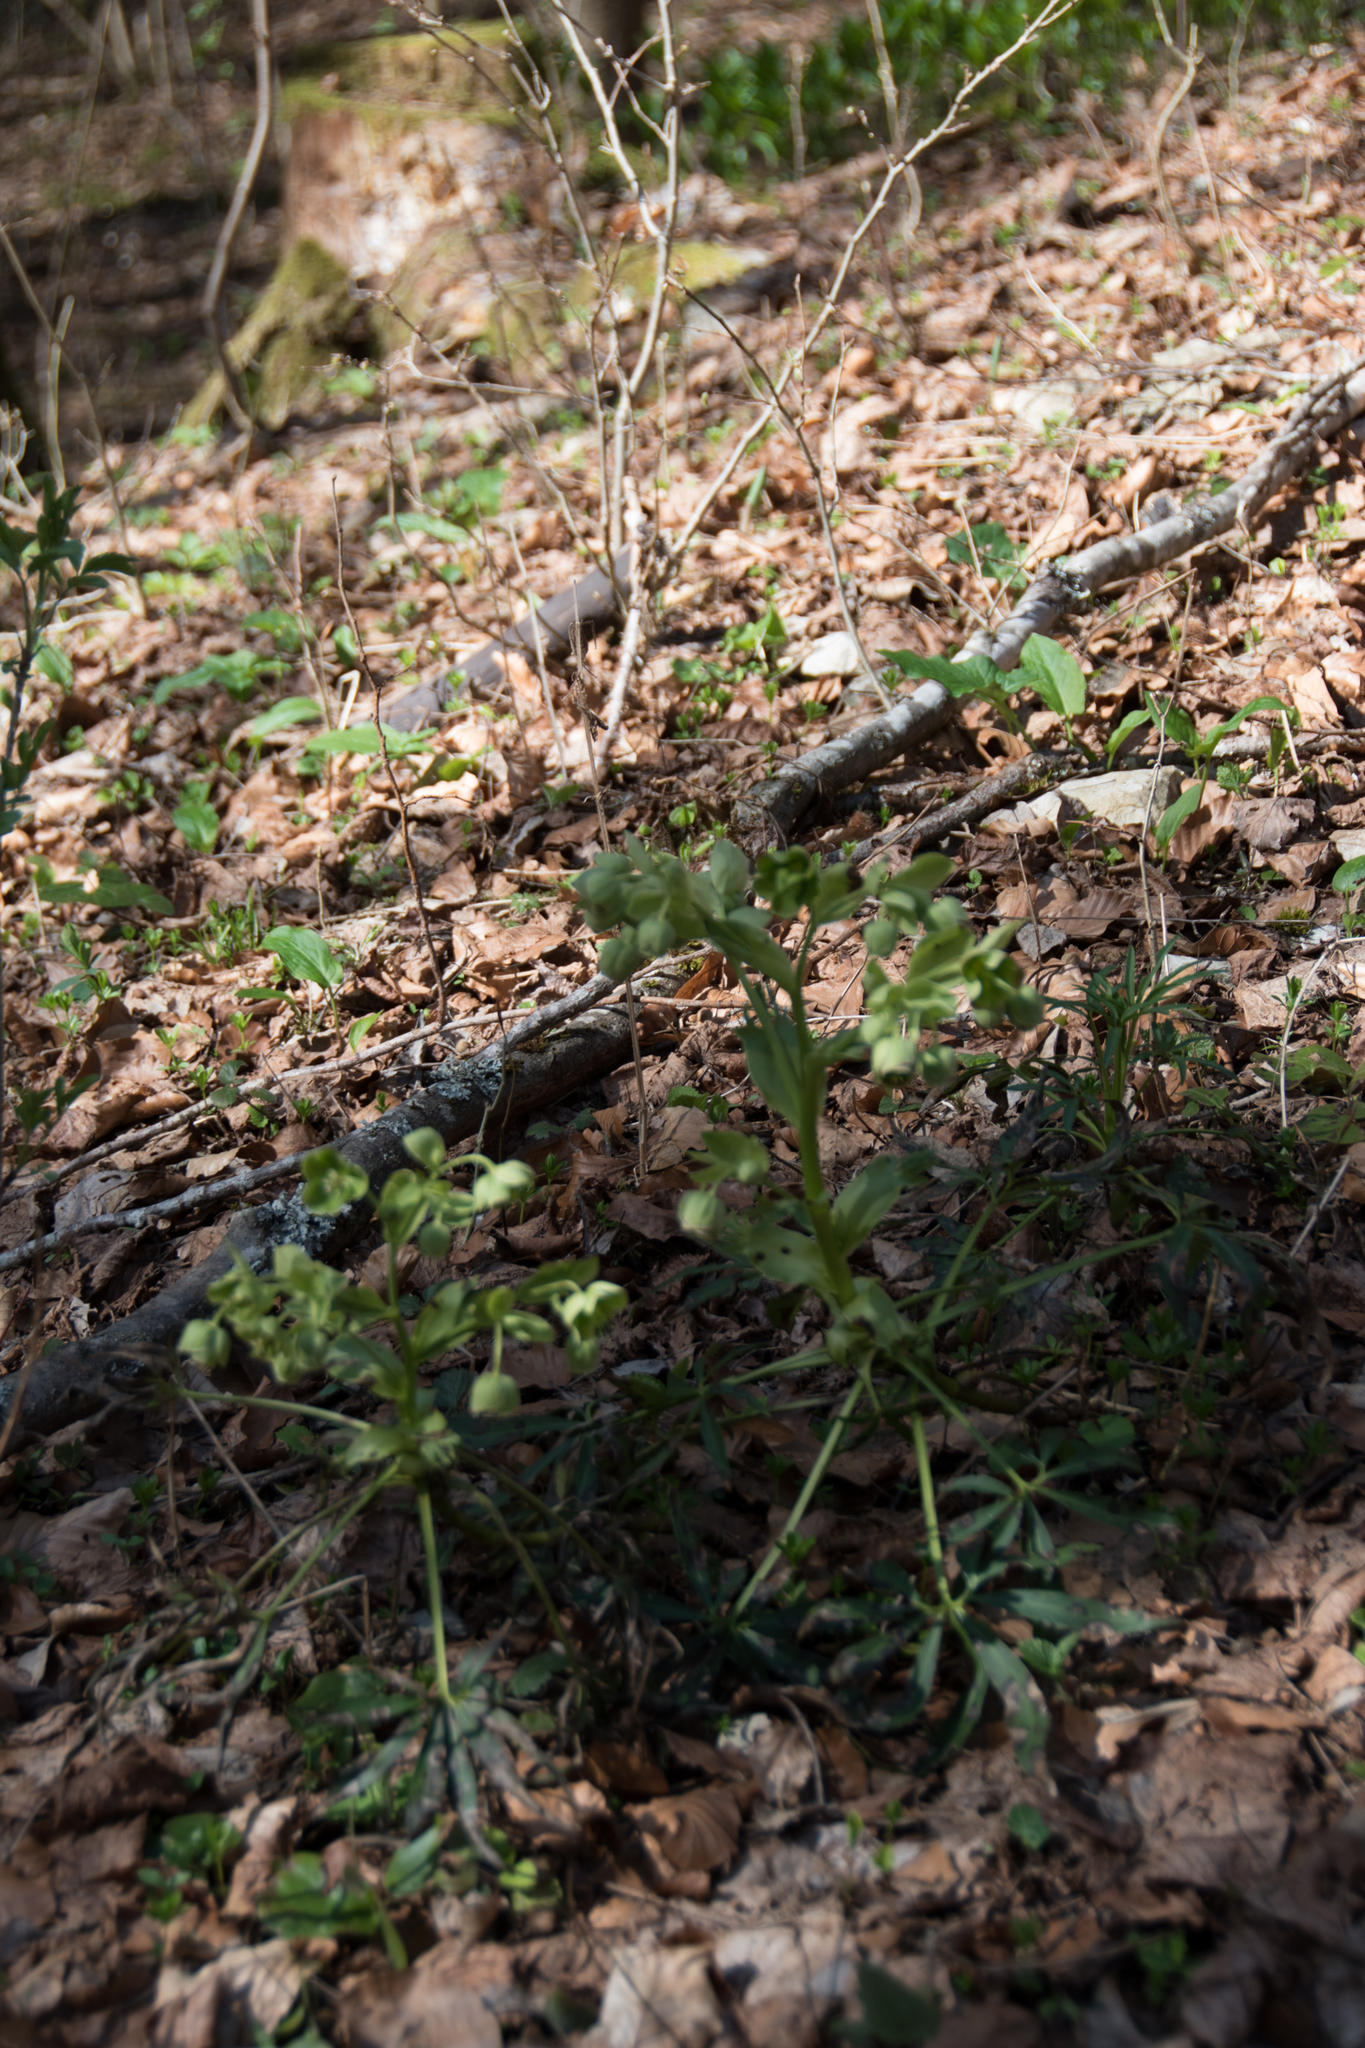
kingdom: Plantae
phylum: Tracheophyta
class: Magnoliopsida
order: Ranunculales
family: Ranunculaceae
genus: Helleborus
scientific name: Helleborus foetidus
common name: Stinking hellebore
